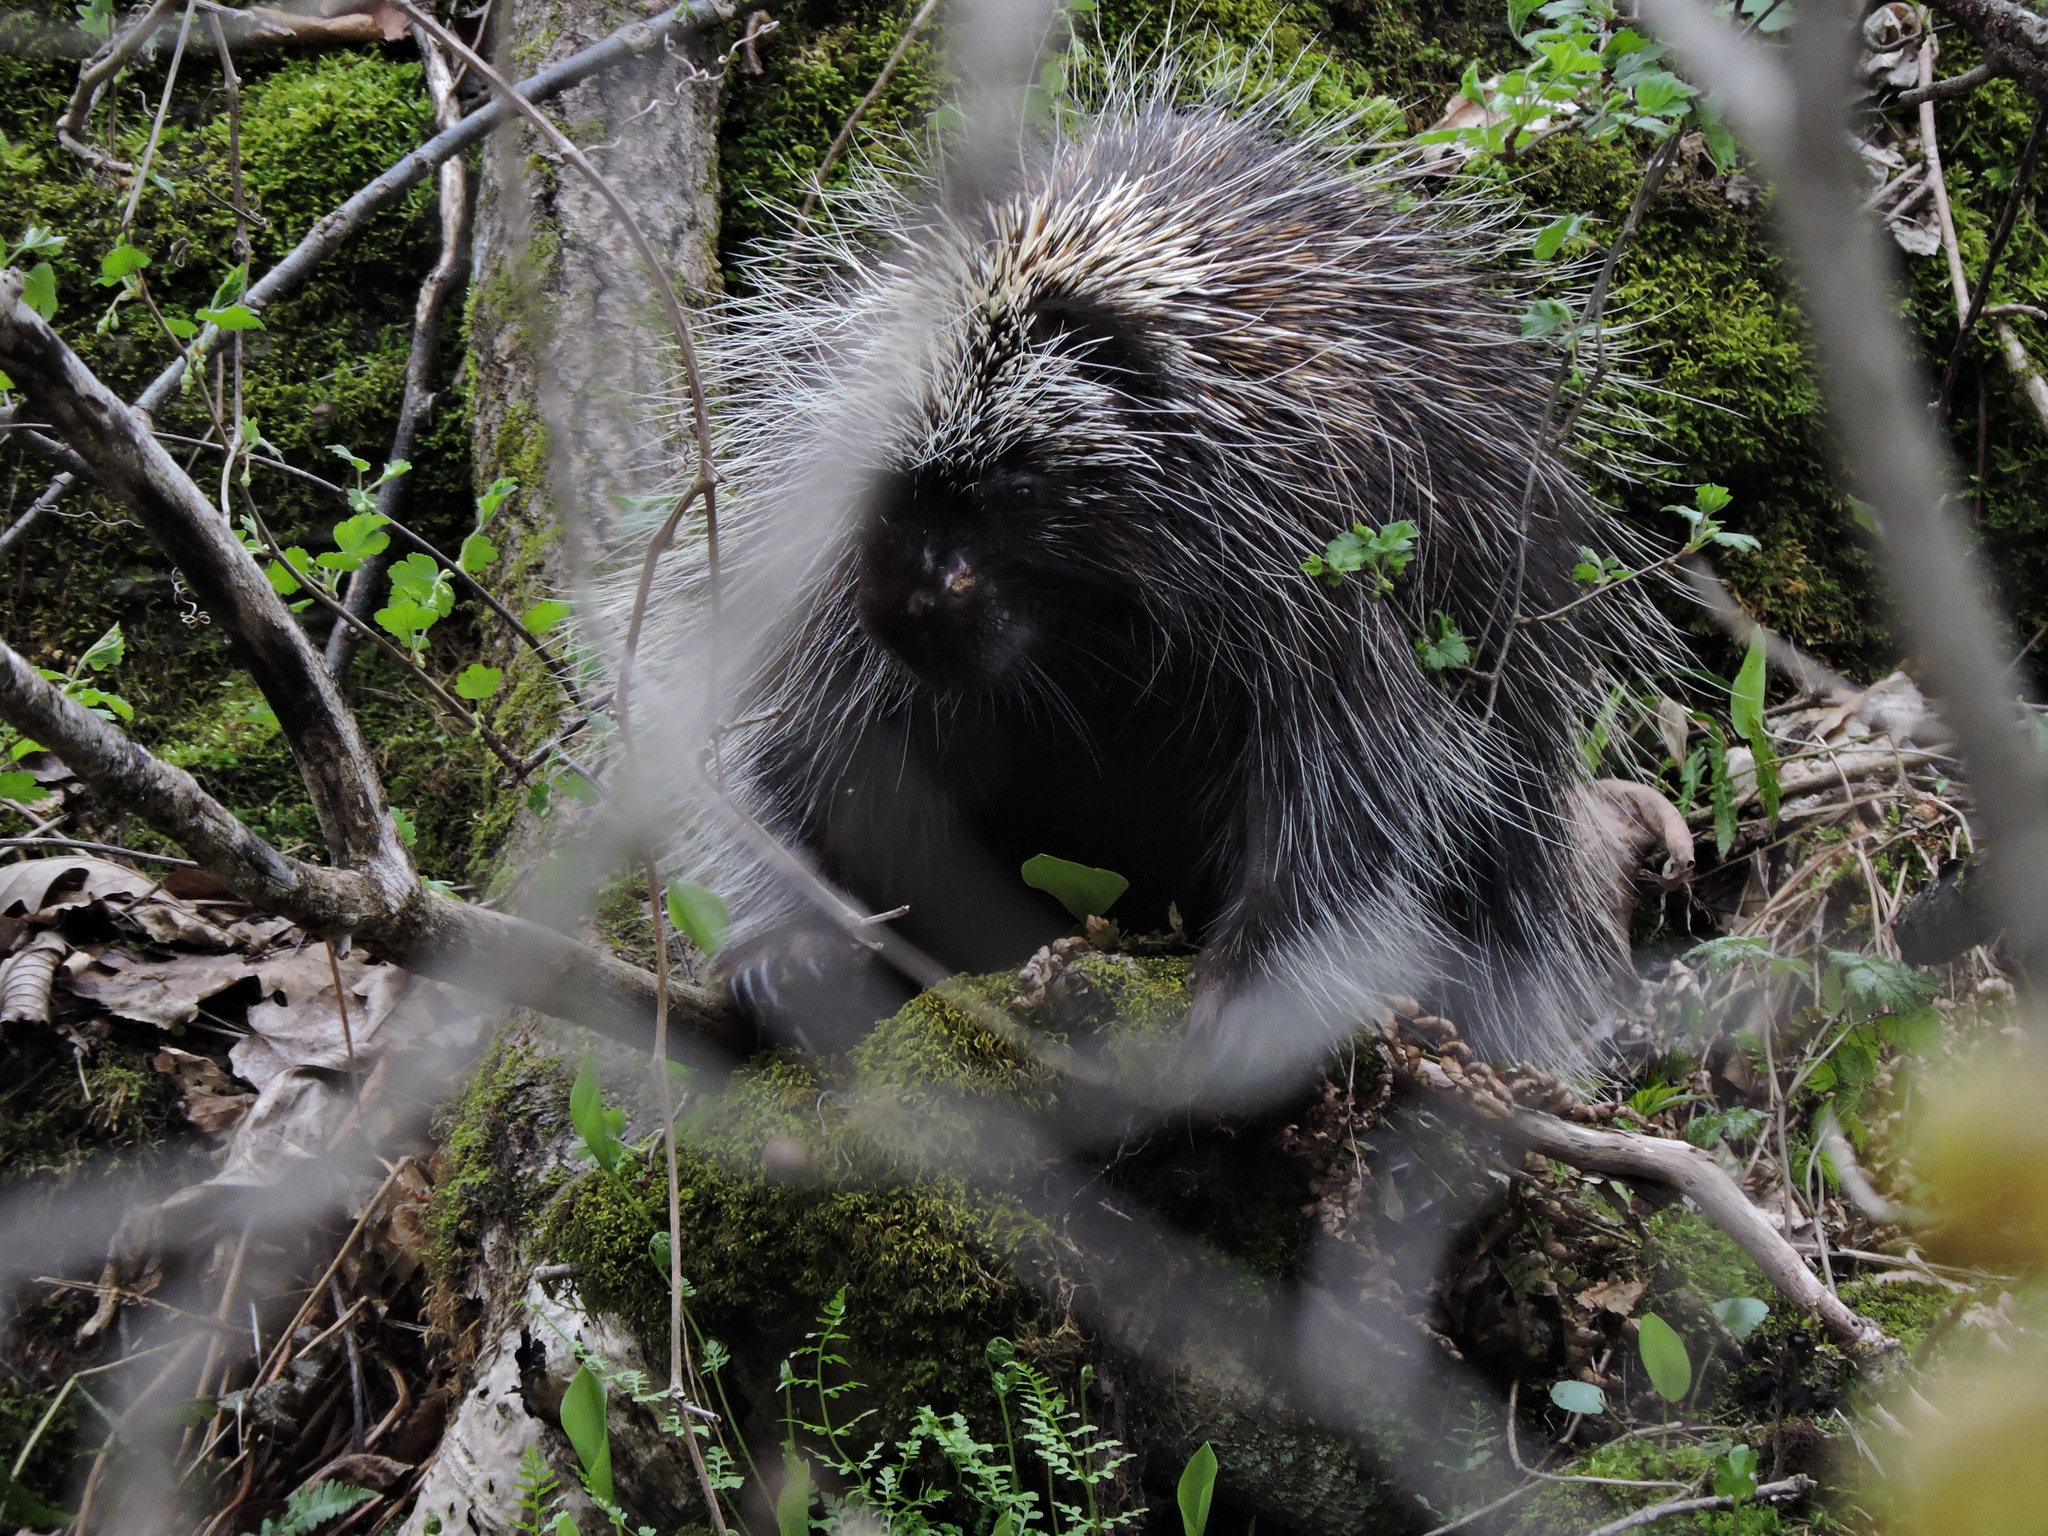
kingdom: Animalia
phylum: Chordata
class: Mammalia
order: Rodentia
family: Erethizontidae
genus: Erethizon
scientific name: Erethizon dorsatus
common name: North american porcupine
